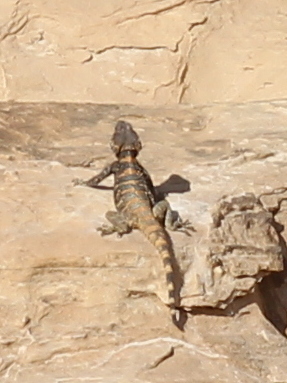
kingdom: Animalia
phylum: Chordata
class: Squamata
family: Agamidae
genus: Laudakia
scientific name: Laudakia vulgaris
